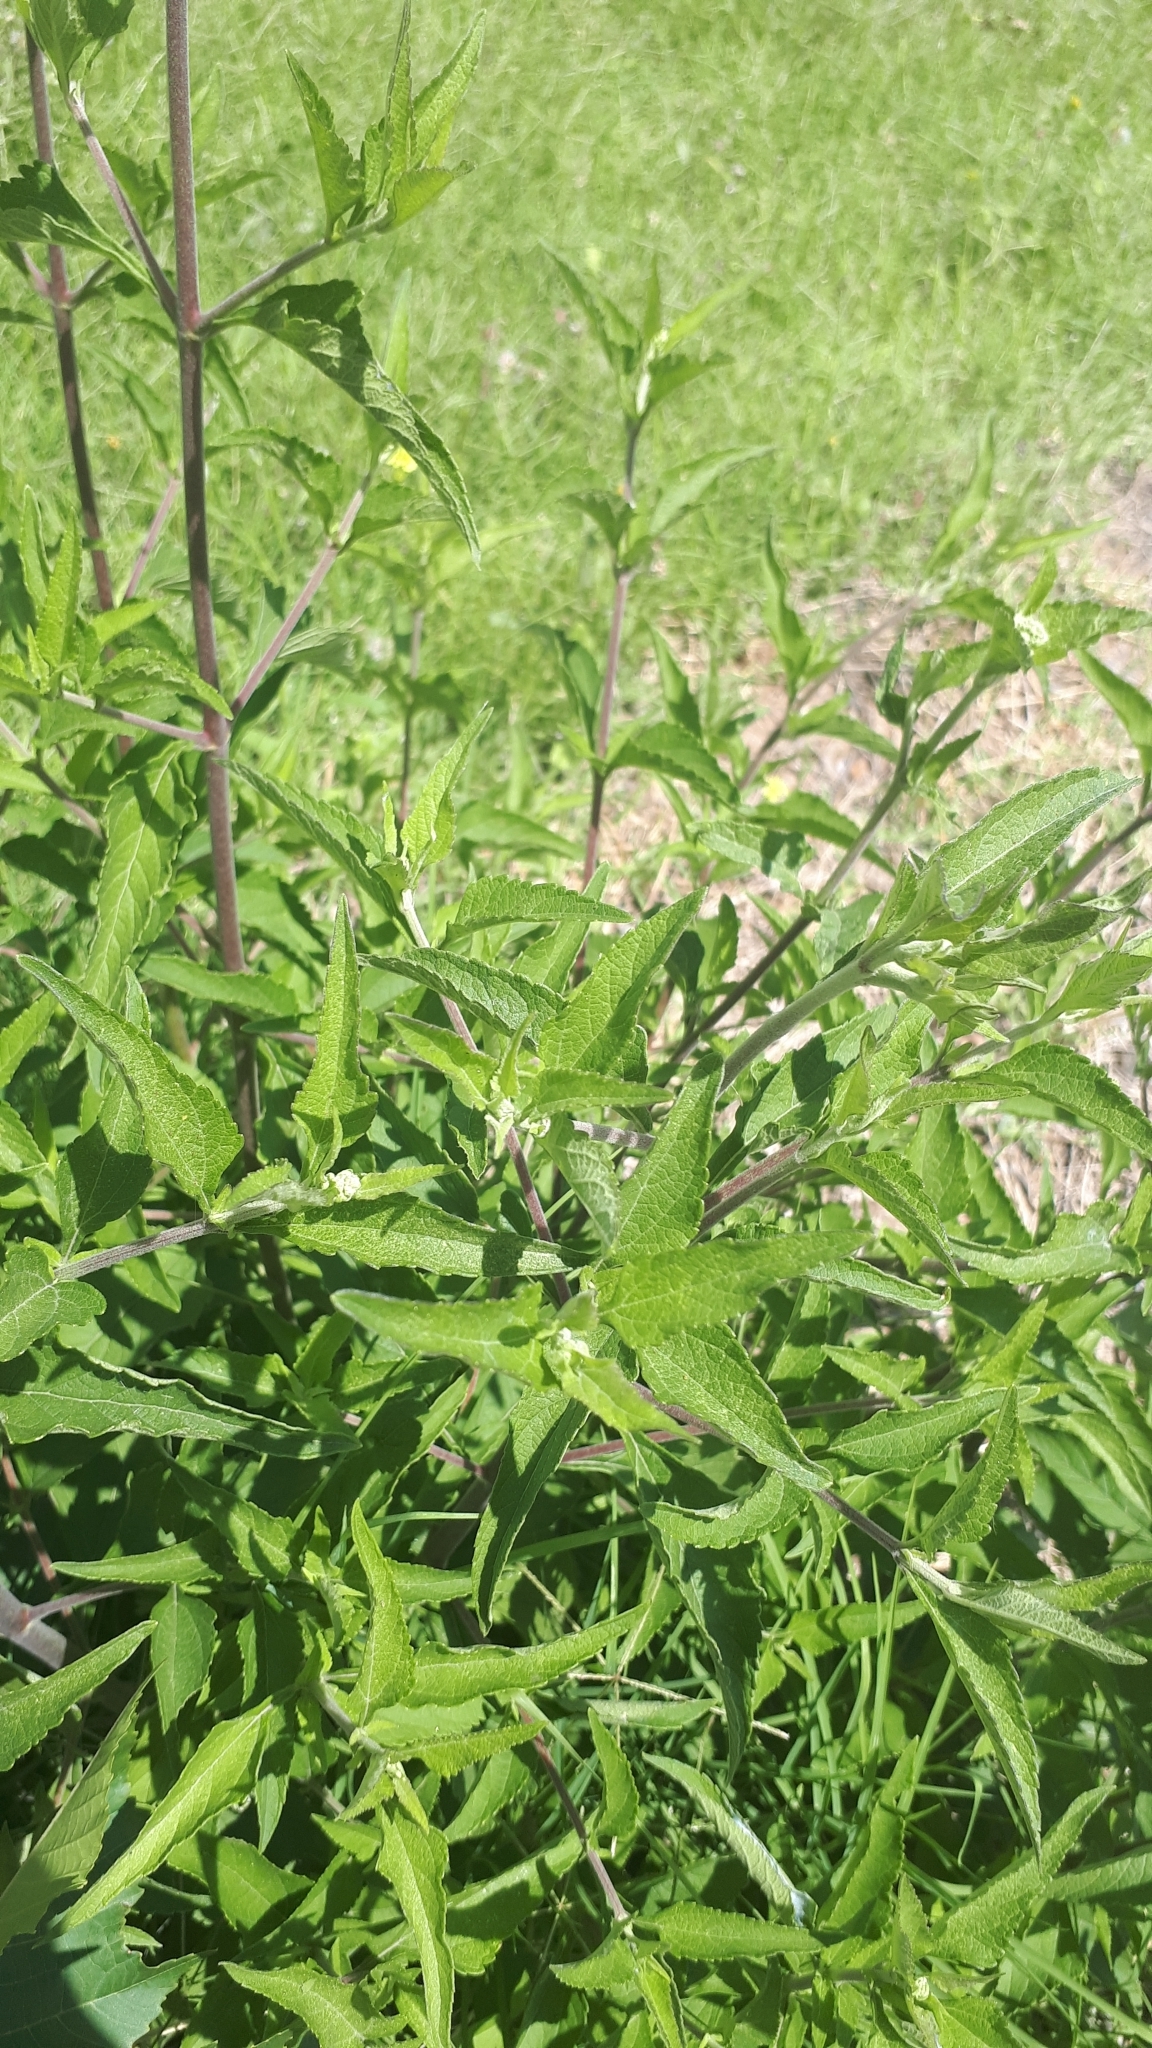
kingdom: Plantae
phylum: Tracheophyta
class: Magnoliopsida
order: Asterales
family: Asteraceae
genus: Austroeupatorium
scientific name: Austroeupatorium inulifolium
